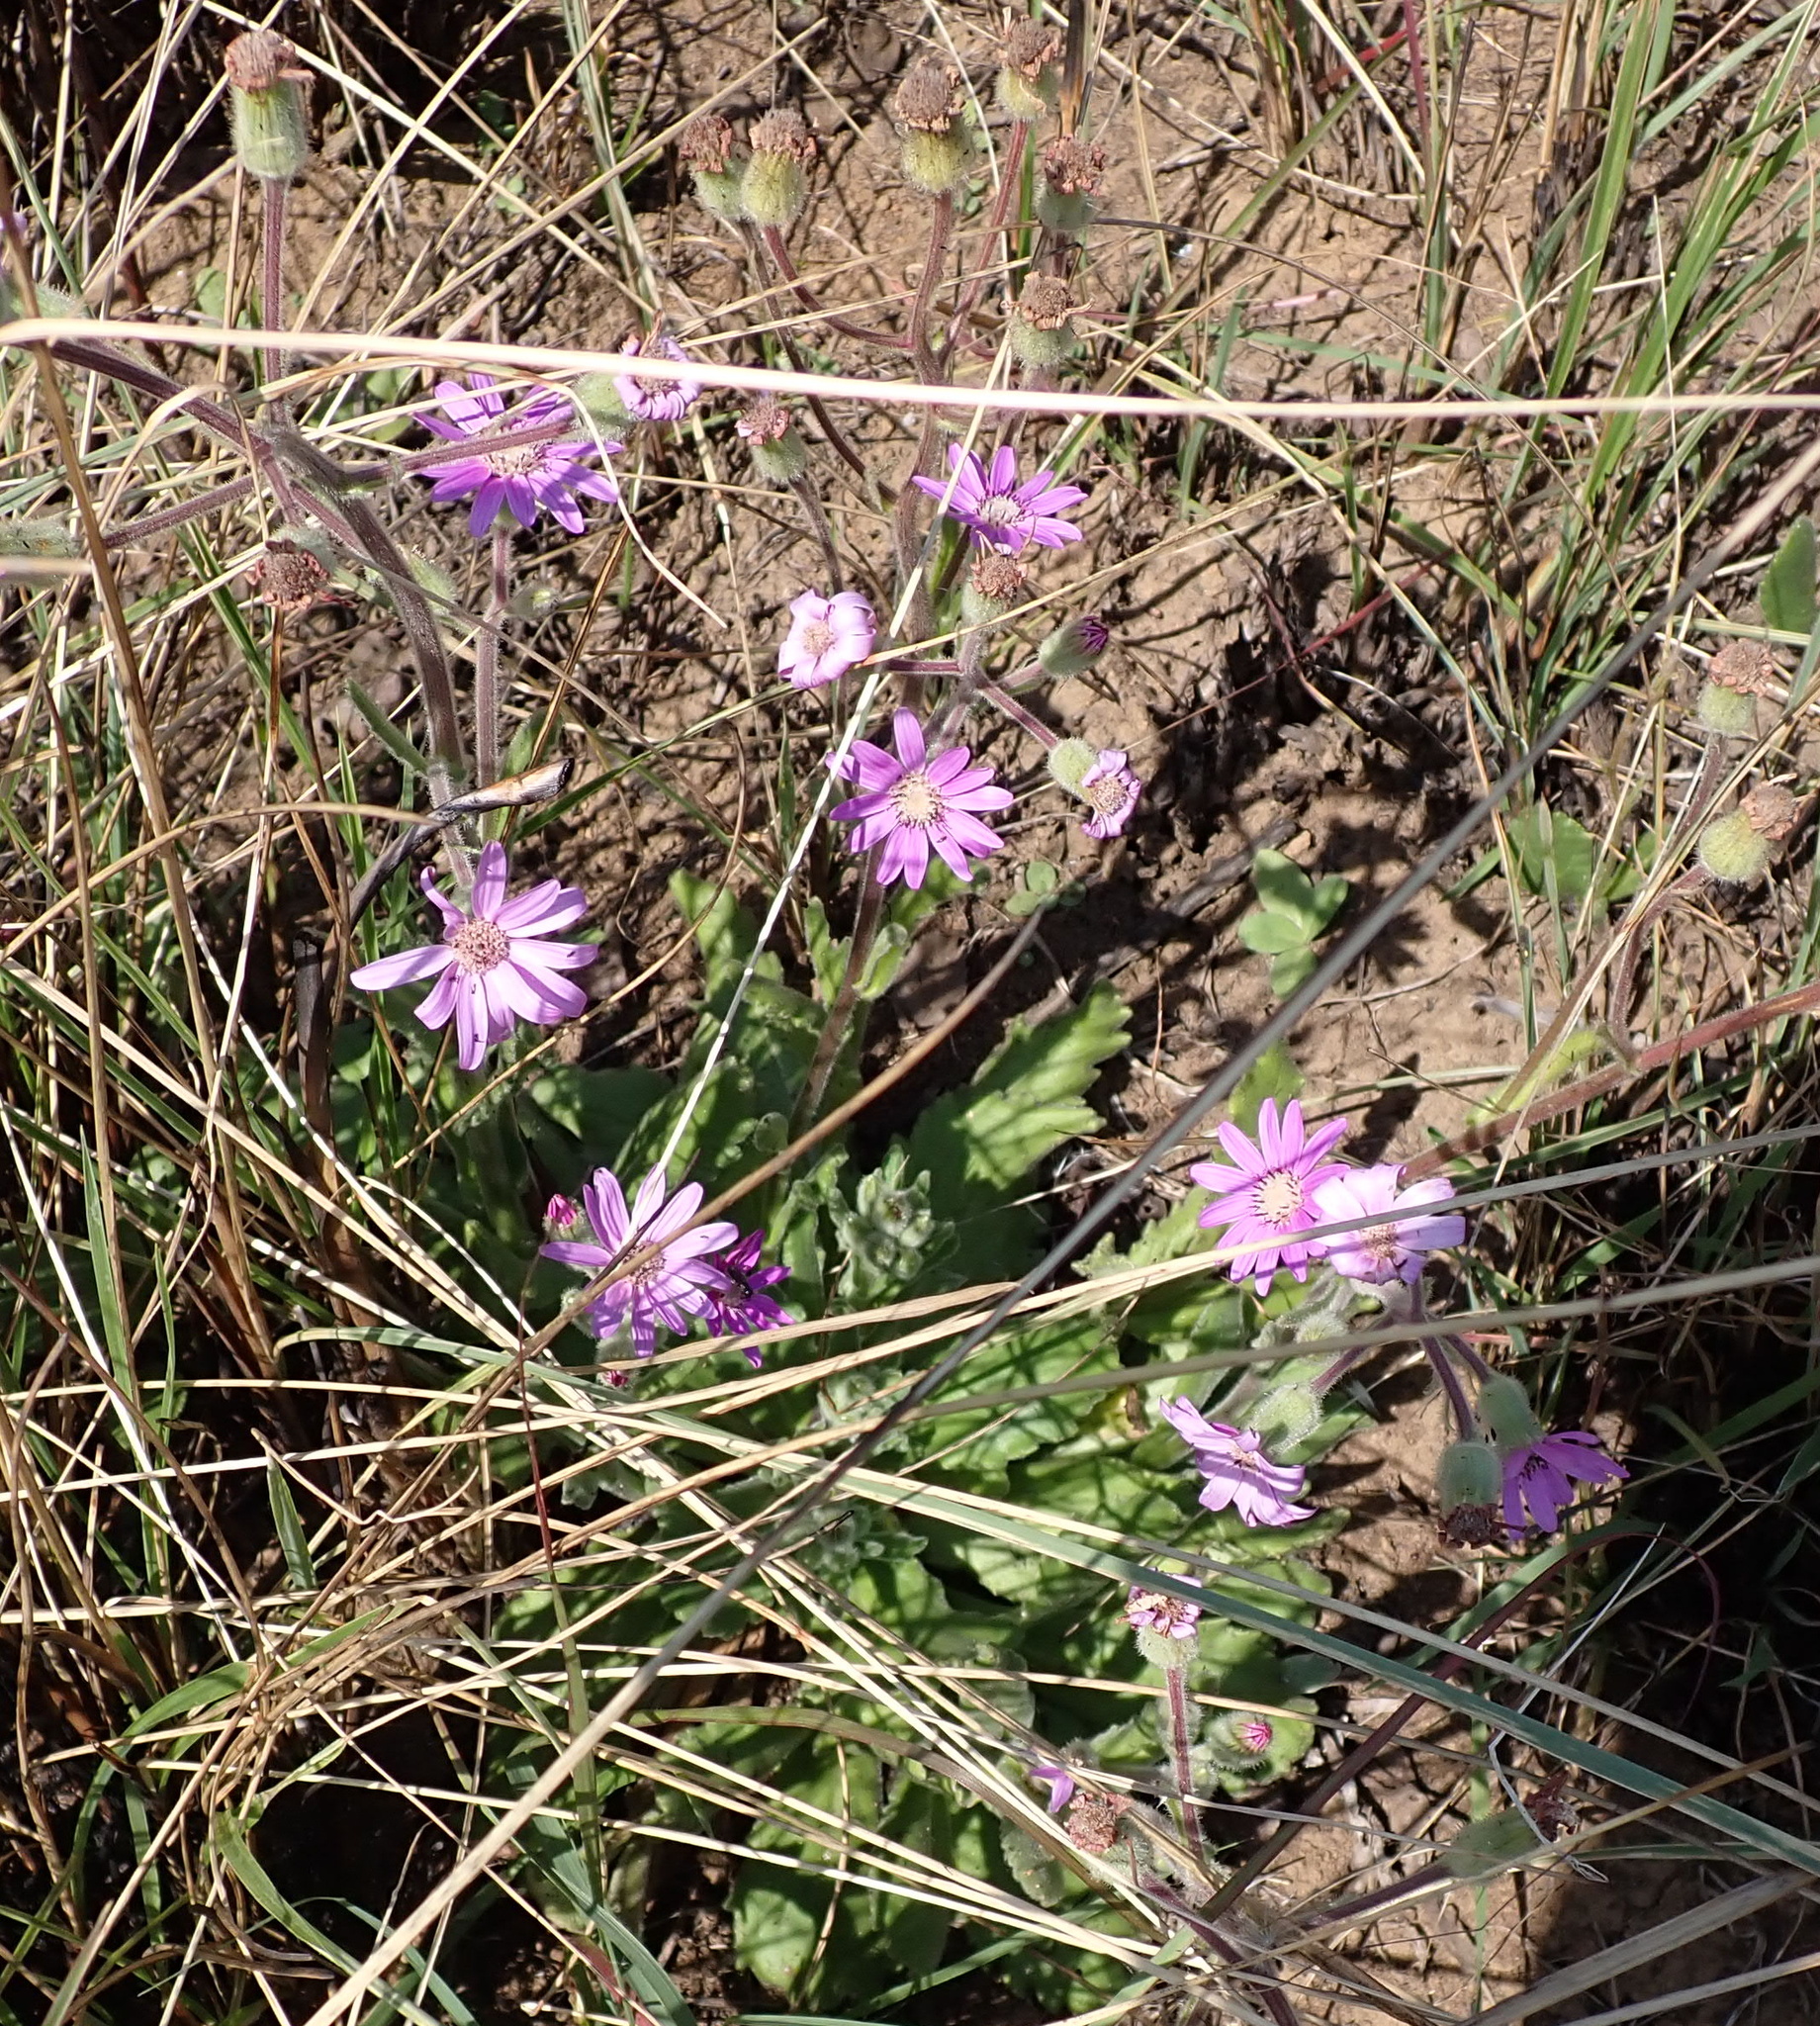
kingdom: Plantae
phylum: Tracheophyta
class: Magnoliopsida
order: Asterales
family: Asteraceae
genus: Senecio
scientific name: Senecio speciosus
